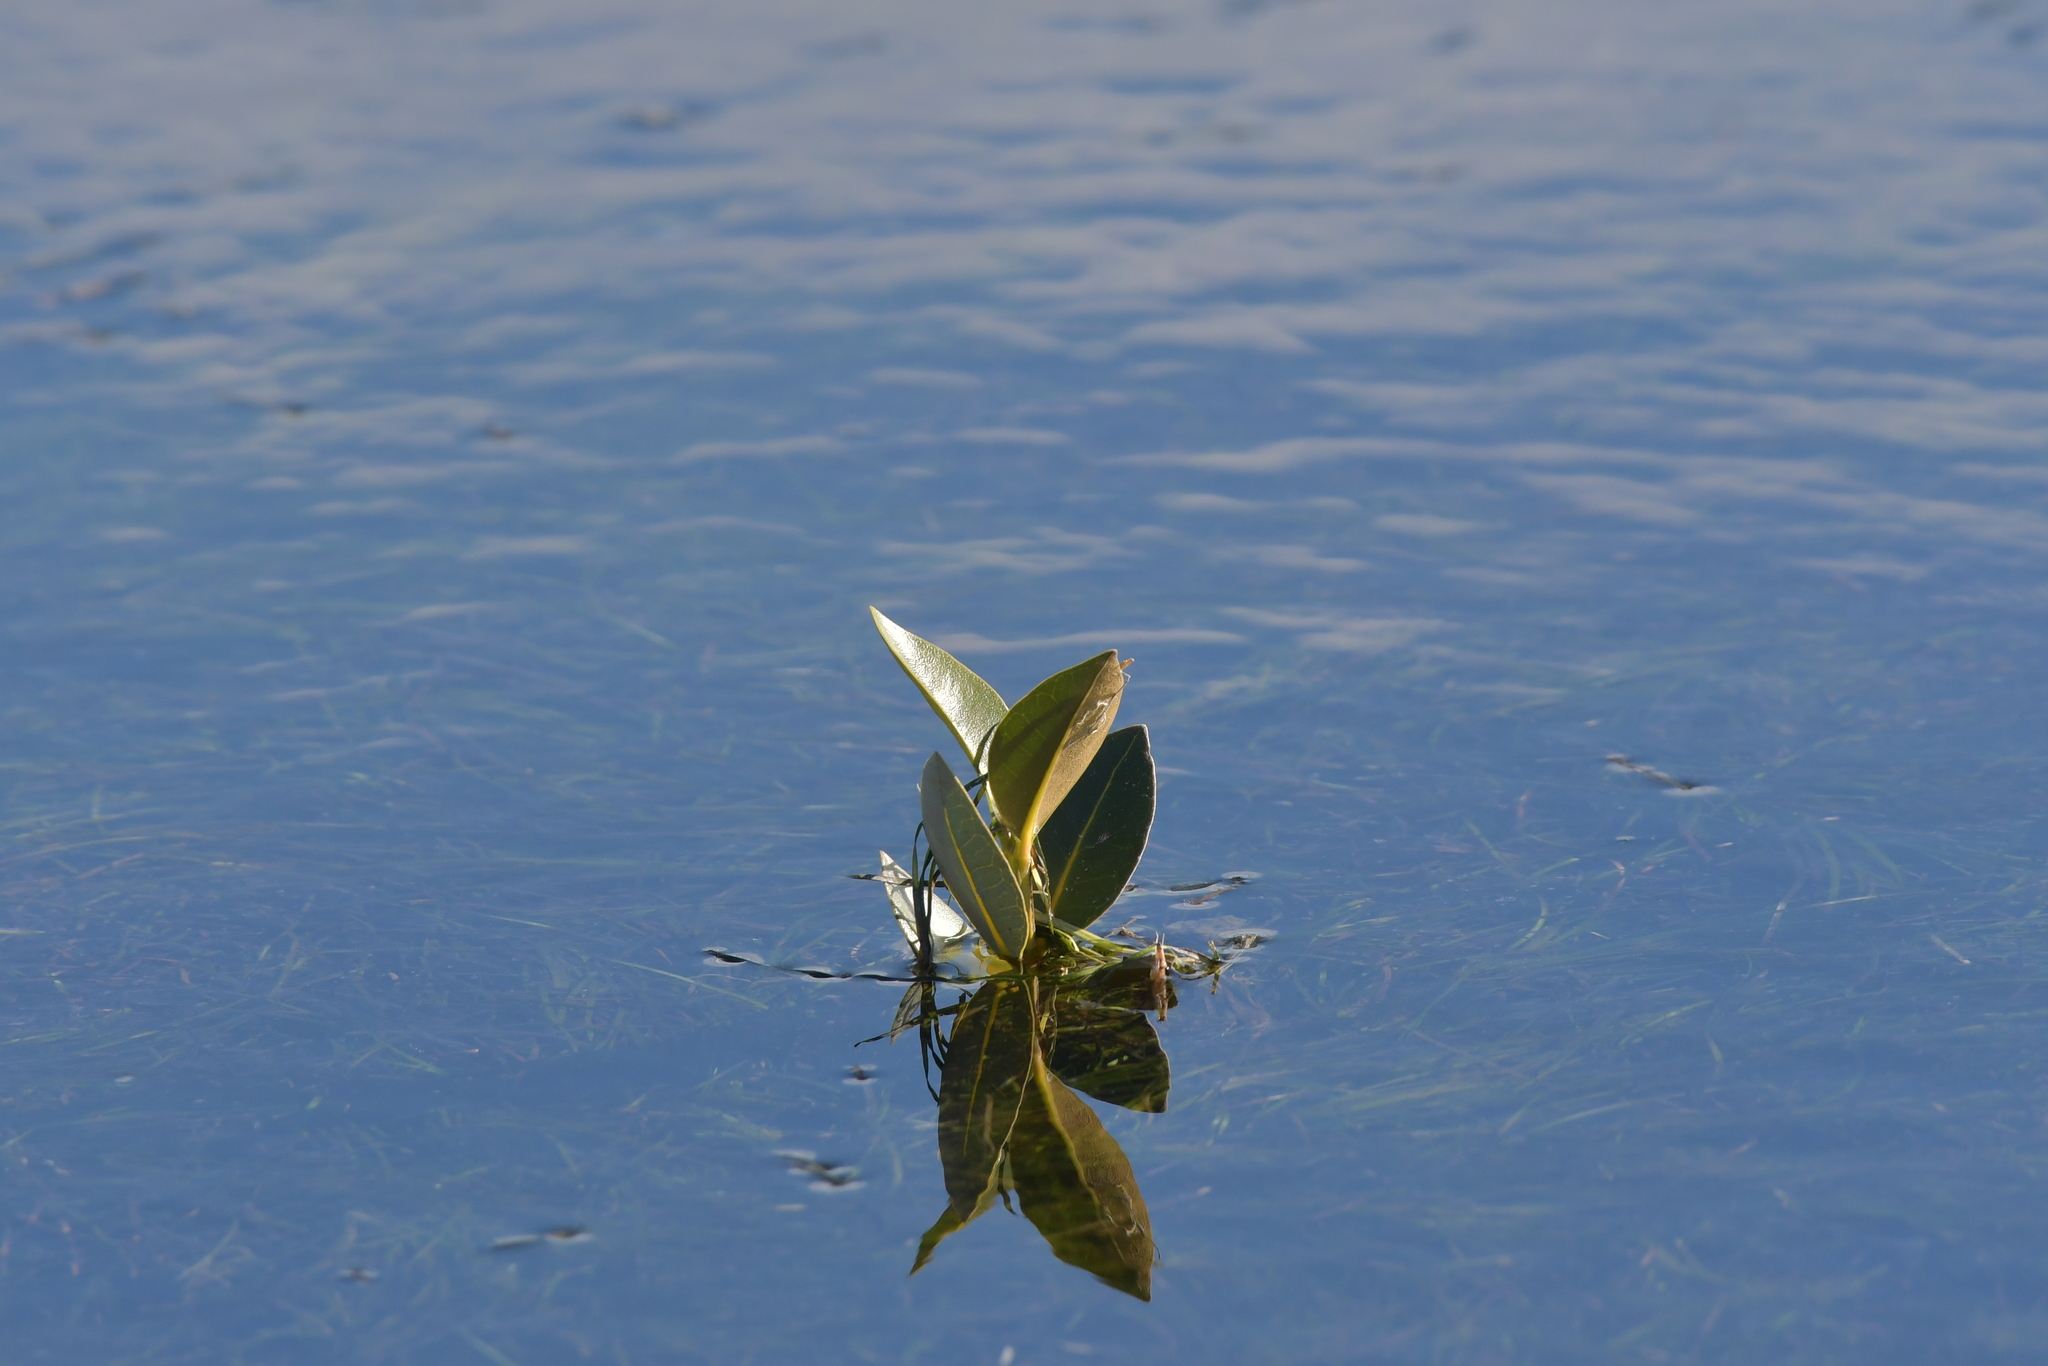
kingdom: Plantae
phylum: Tracheophyta
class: Magnoliopsida
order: Lamiales
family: Acanthaceae
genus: Avicennia
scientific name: Avicennia marina
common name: Gray mangrove
